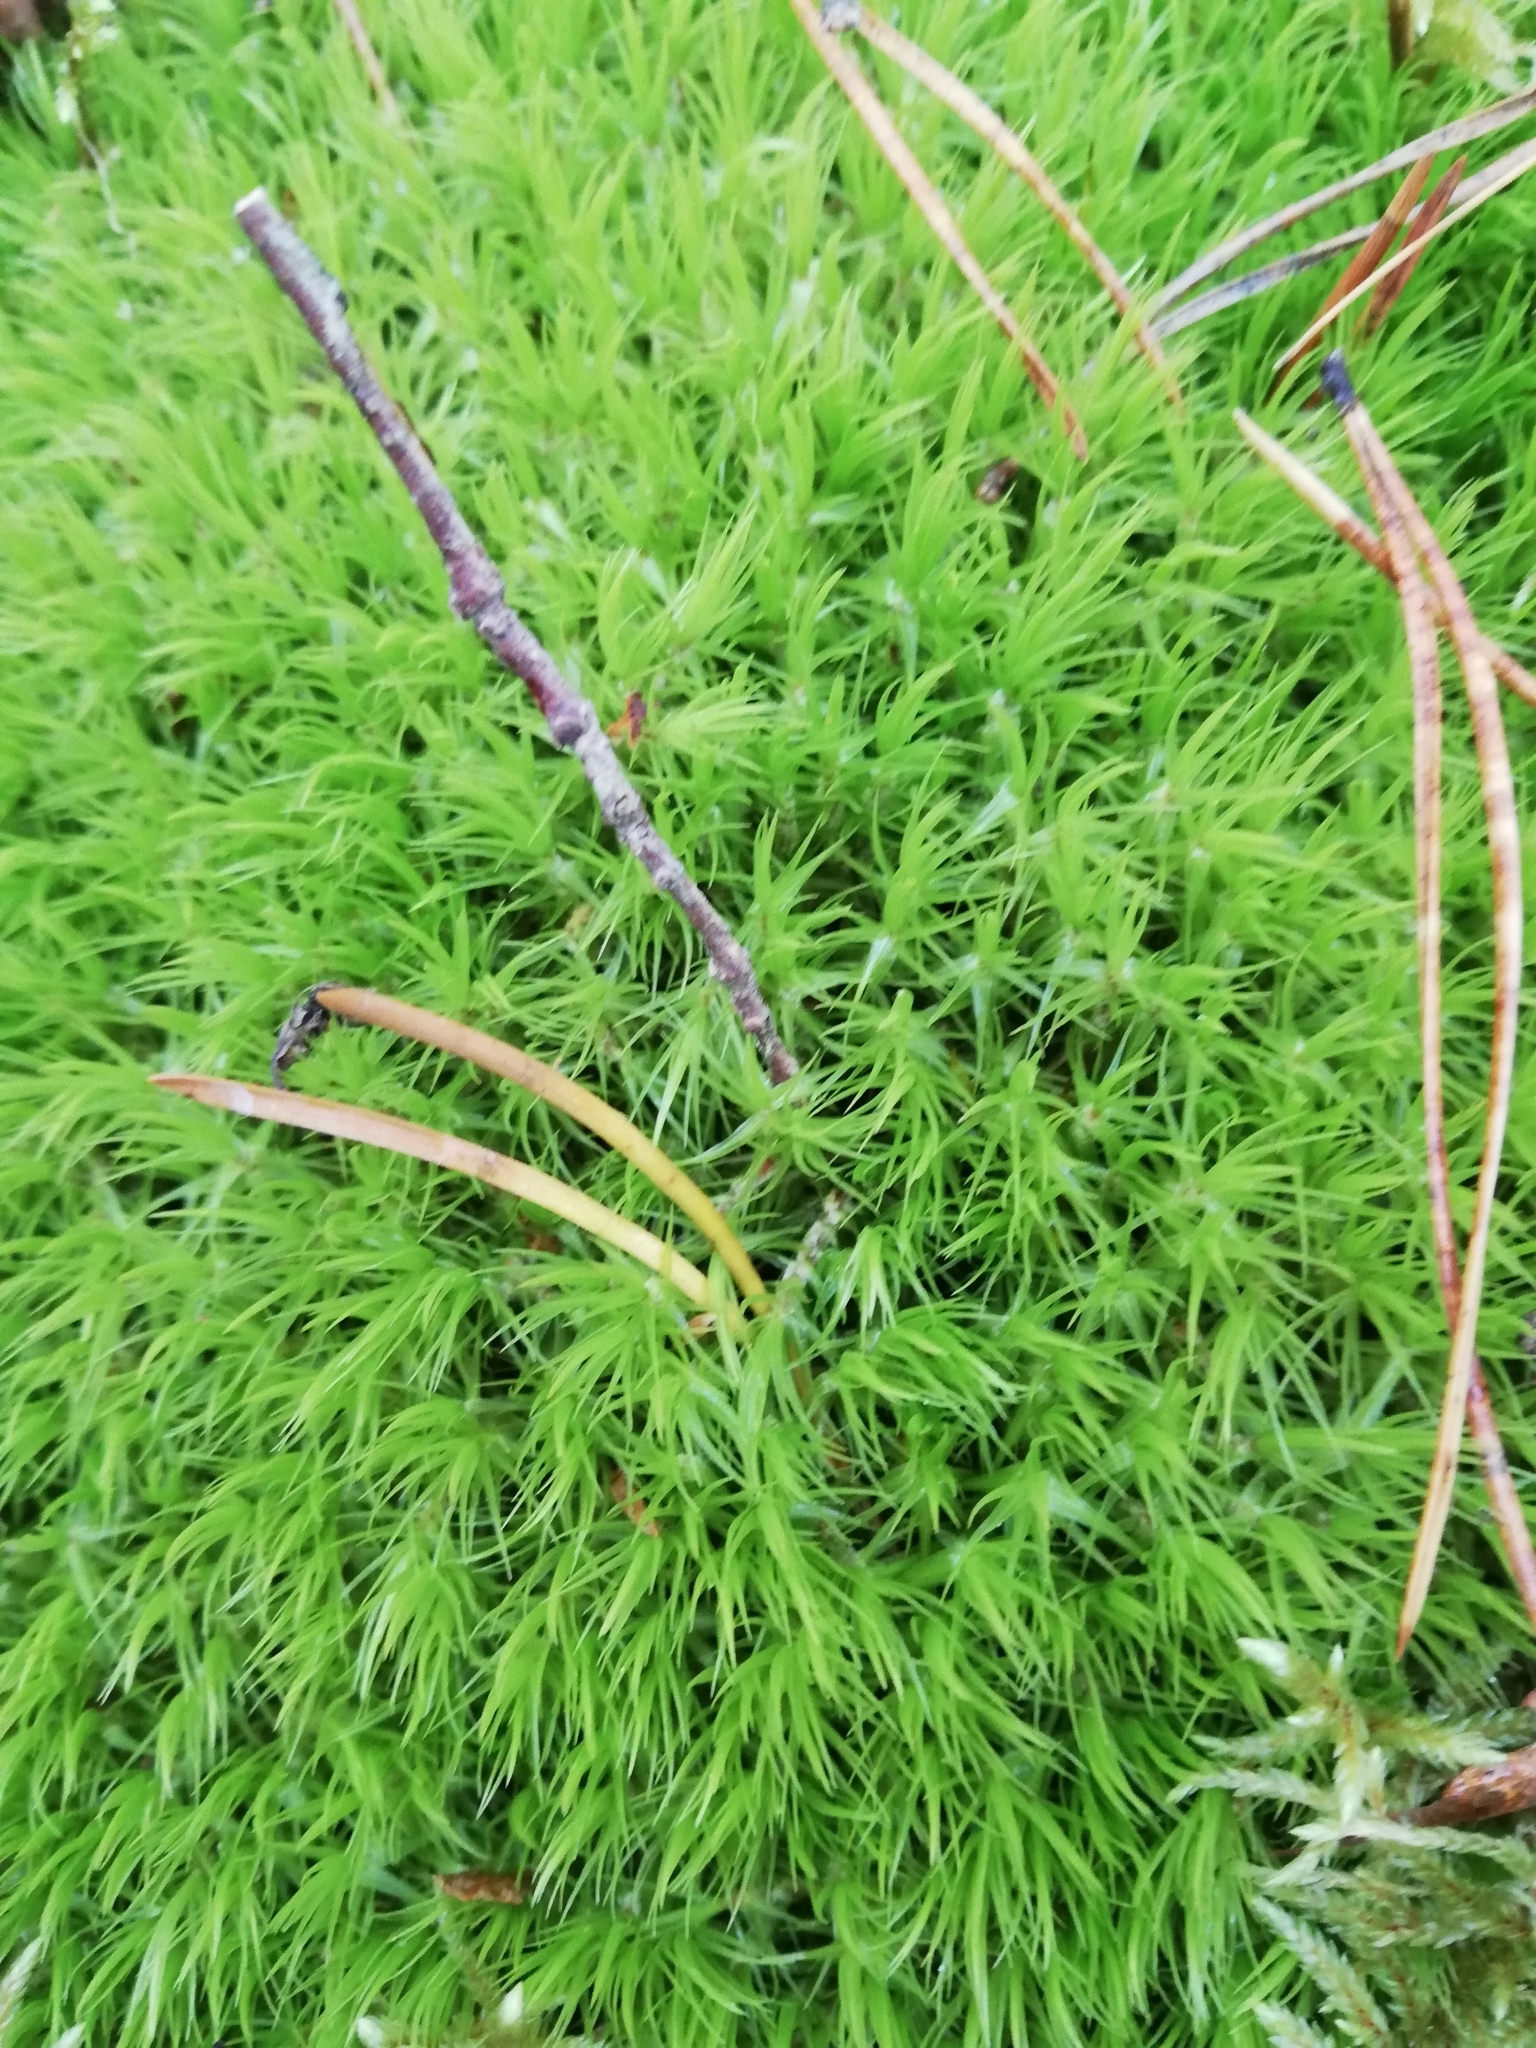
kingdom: Plantae
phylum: Bryophyta
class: Bryopsida
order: Dicranales
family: Dicranaceae
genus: Dicranum
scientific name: Dicranum scoparium
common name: Broom fork-moss
